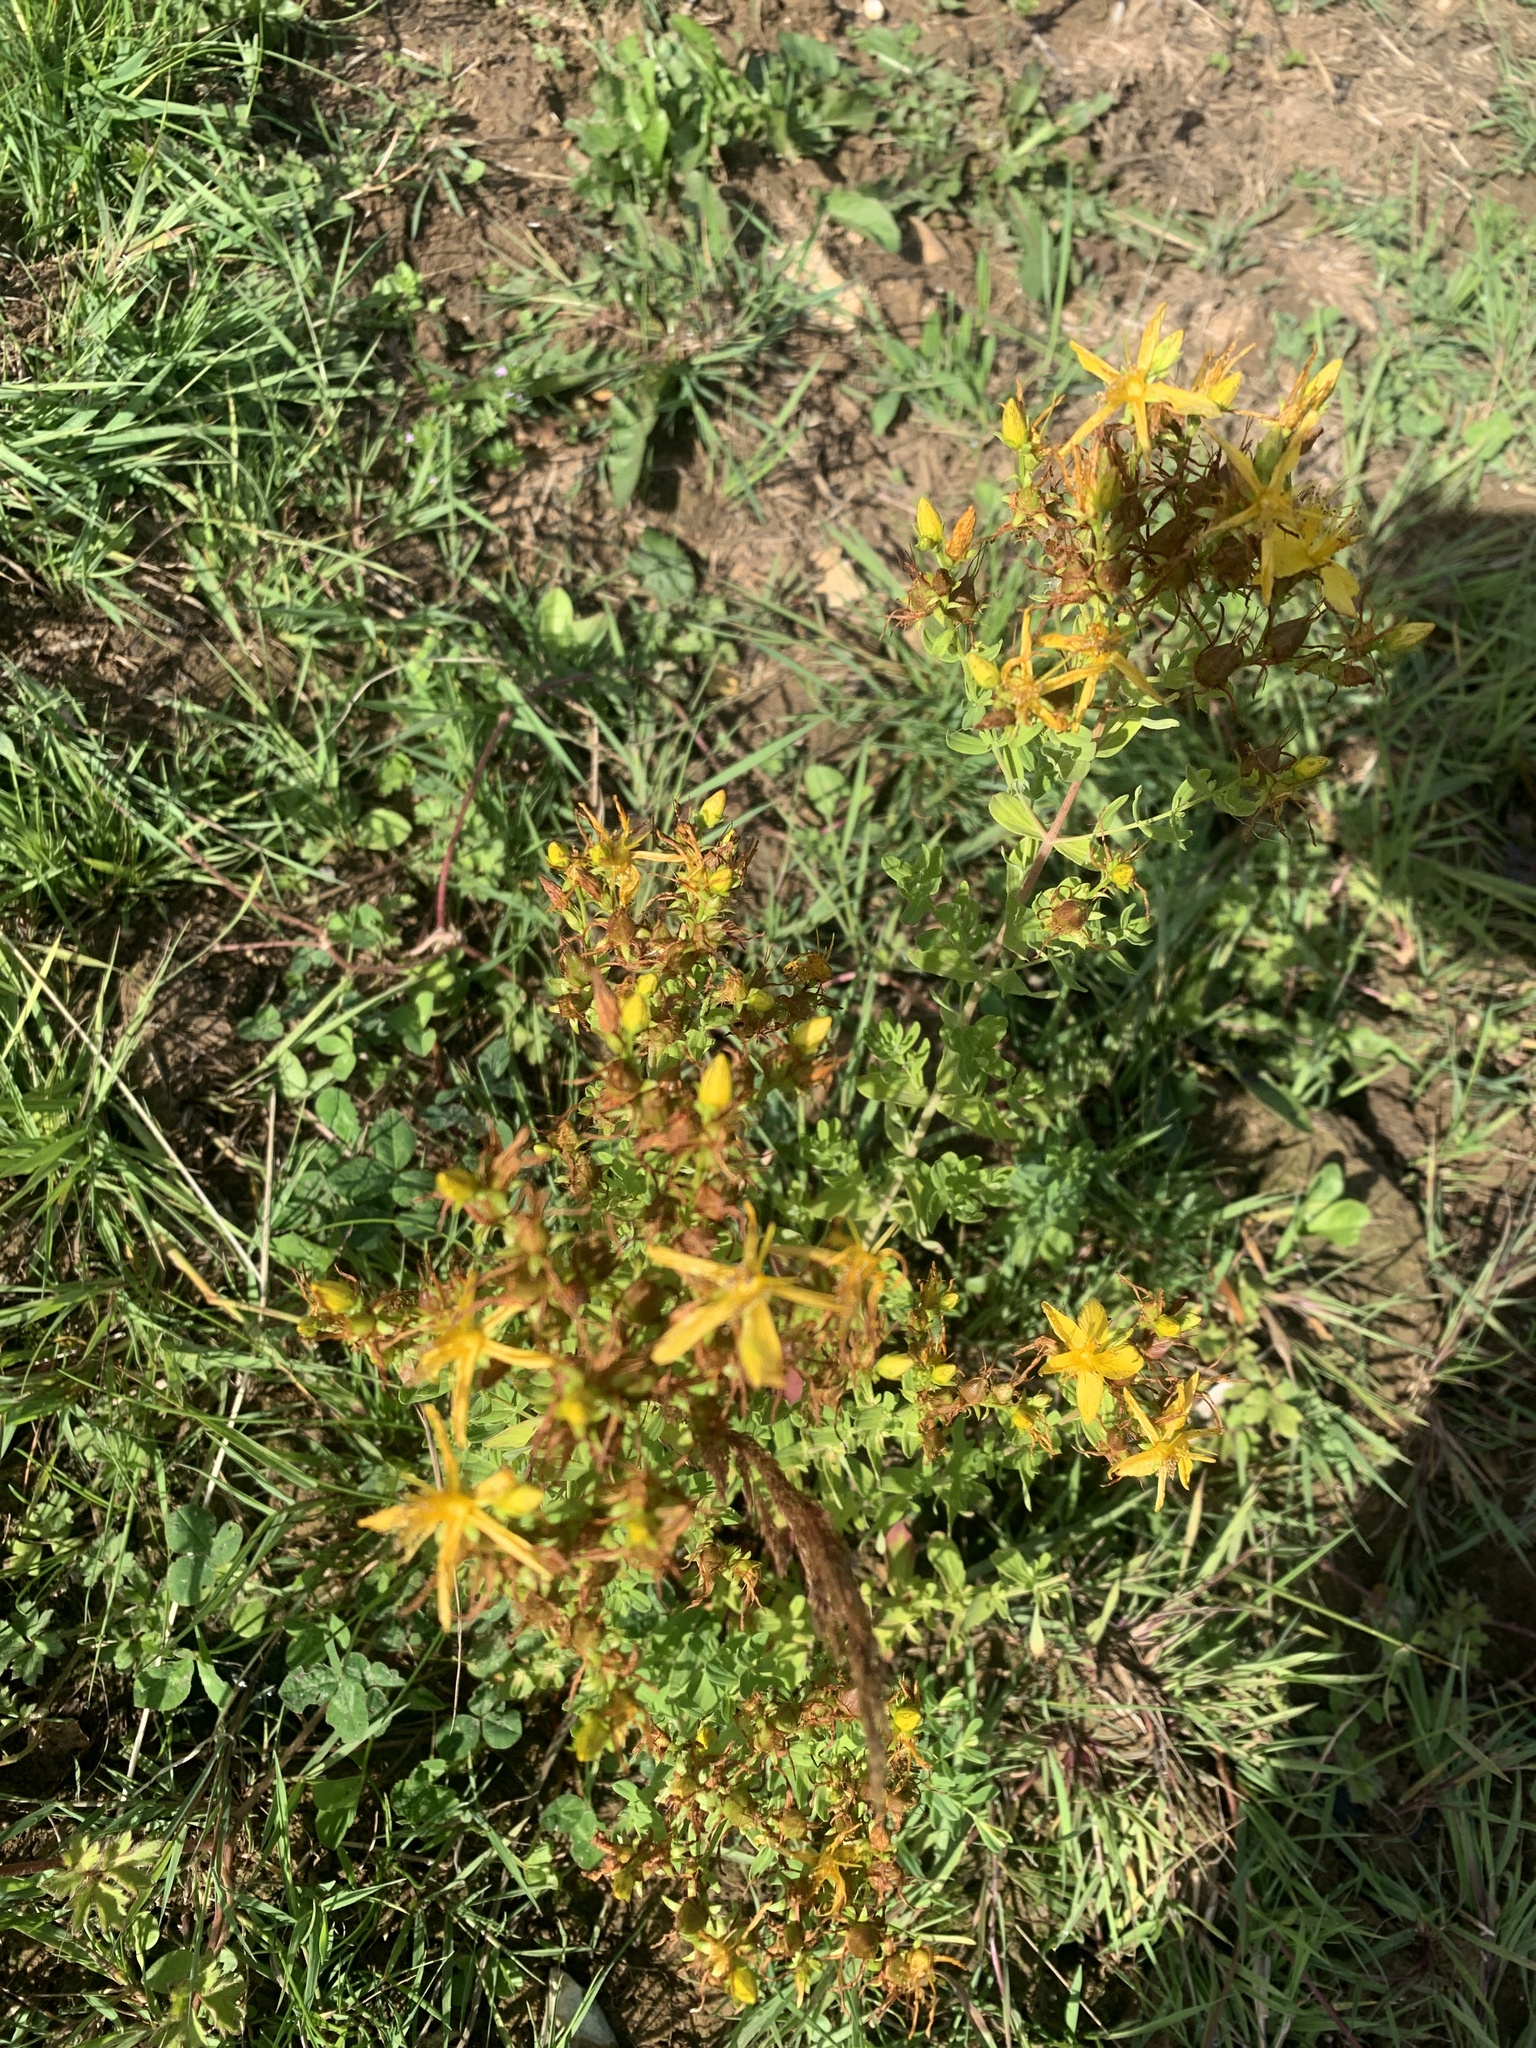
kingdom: Plantae
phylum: Tracheophyta
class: Magnoliopsida
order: Malpighiales
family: Hypericaceae
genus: Hypericum
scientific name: Hypericum perforatum
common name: Common st. johnswort
